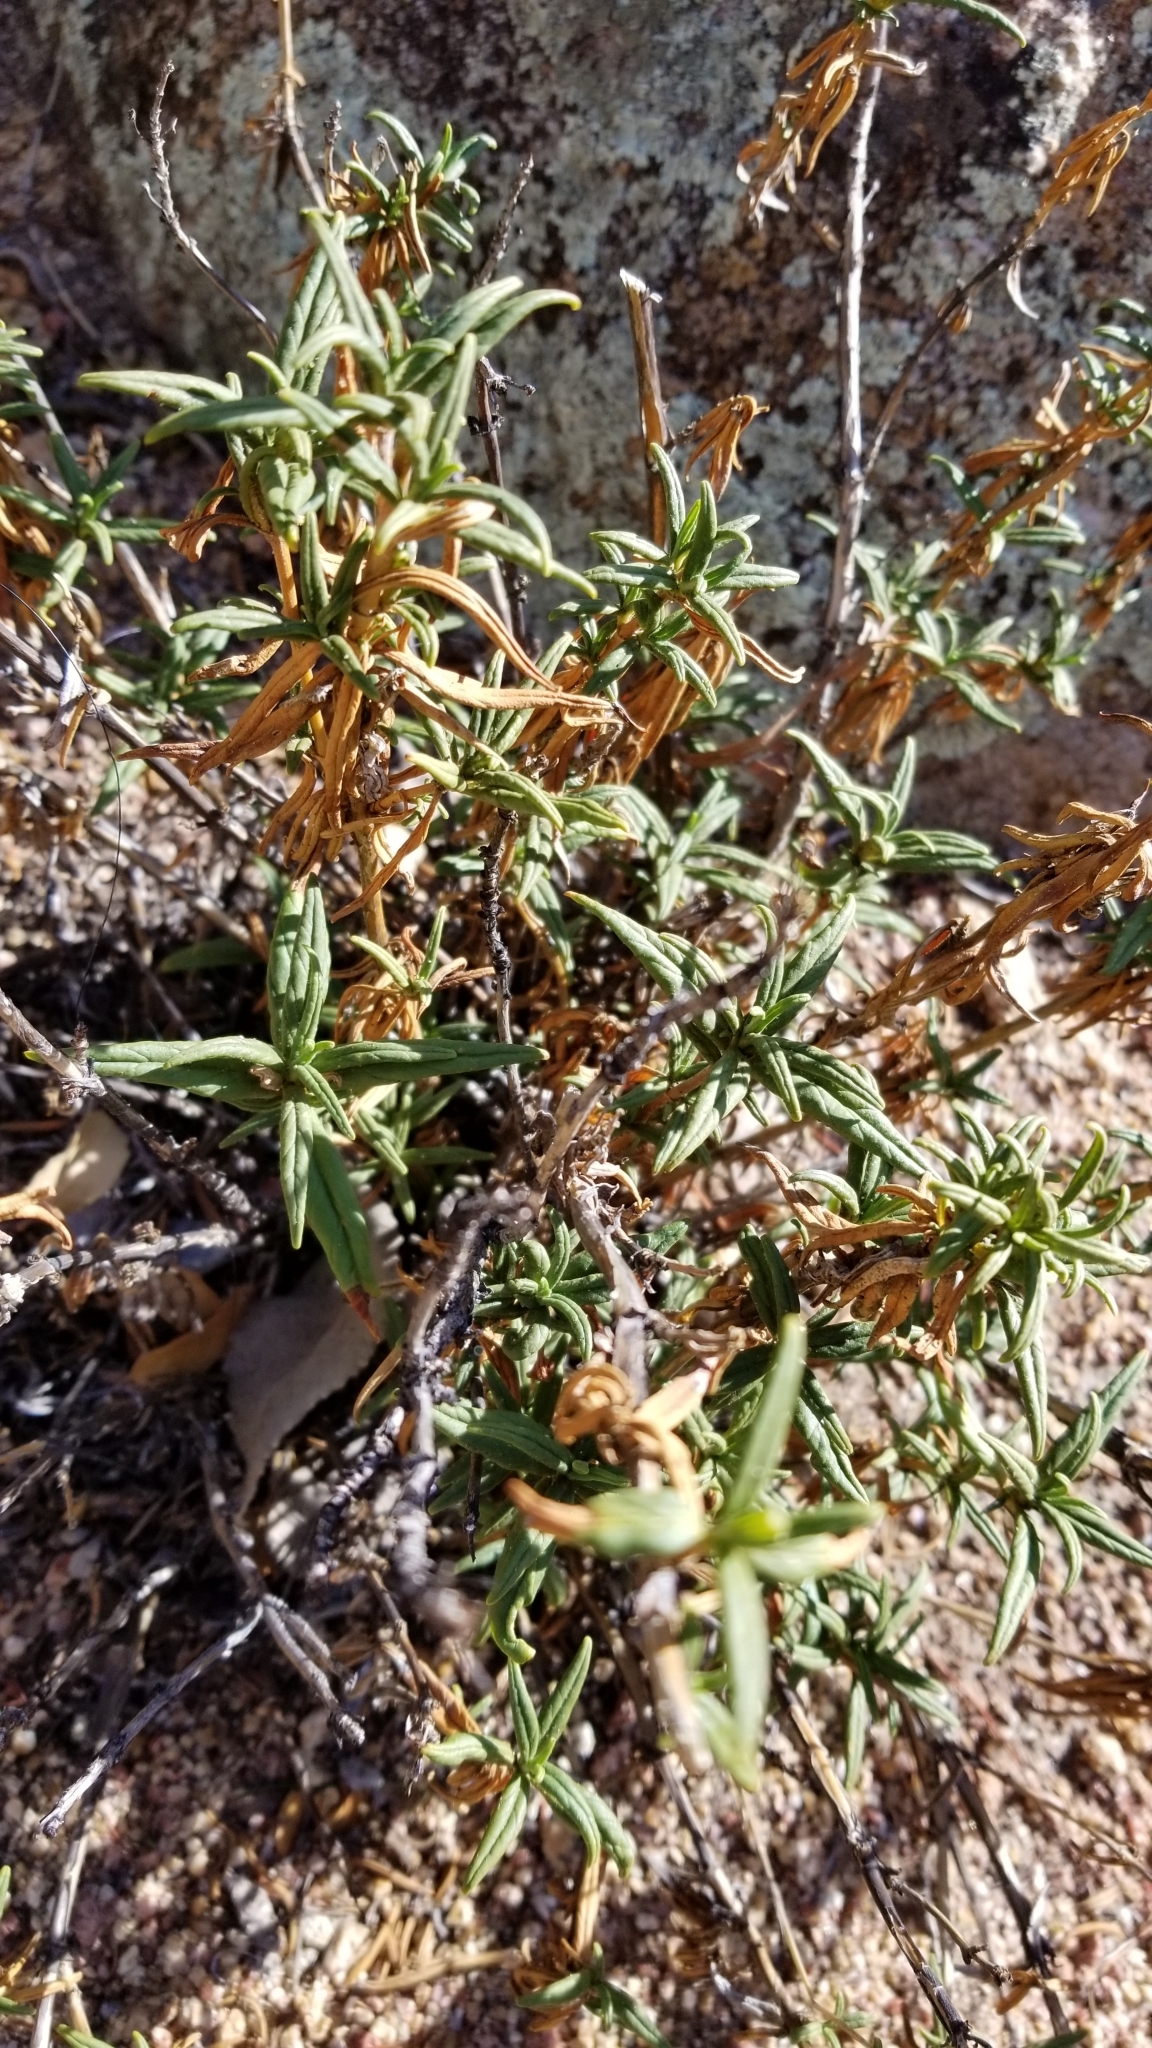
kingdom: Plantae
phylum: Tracheophyta
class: Magnoliopsida
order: Lamiales
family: Phrymaceae
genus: Diplacus
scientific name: Diplacus calycinus
